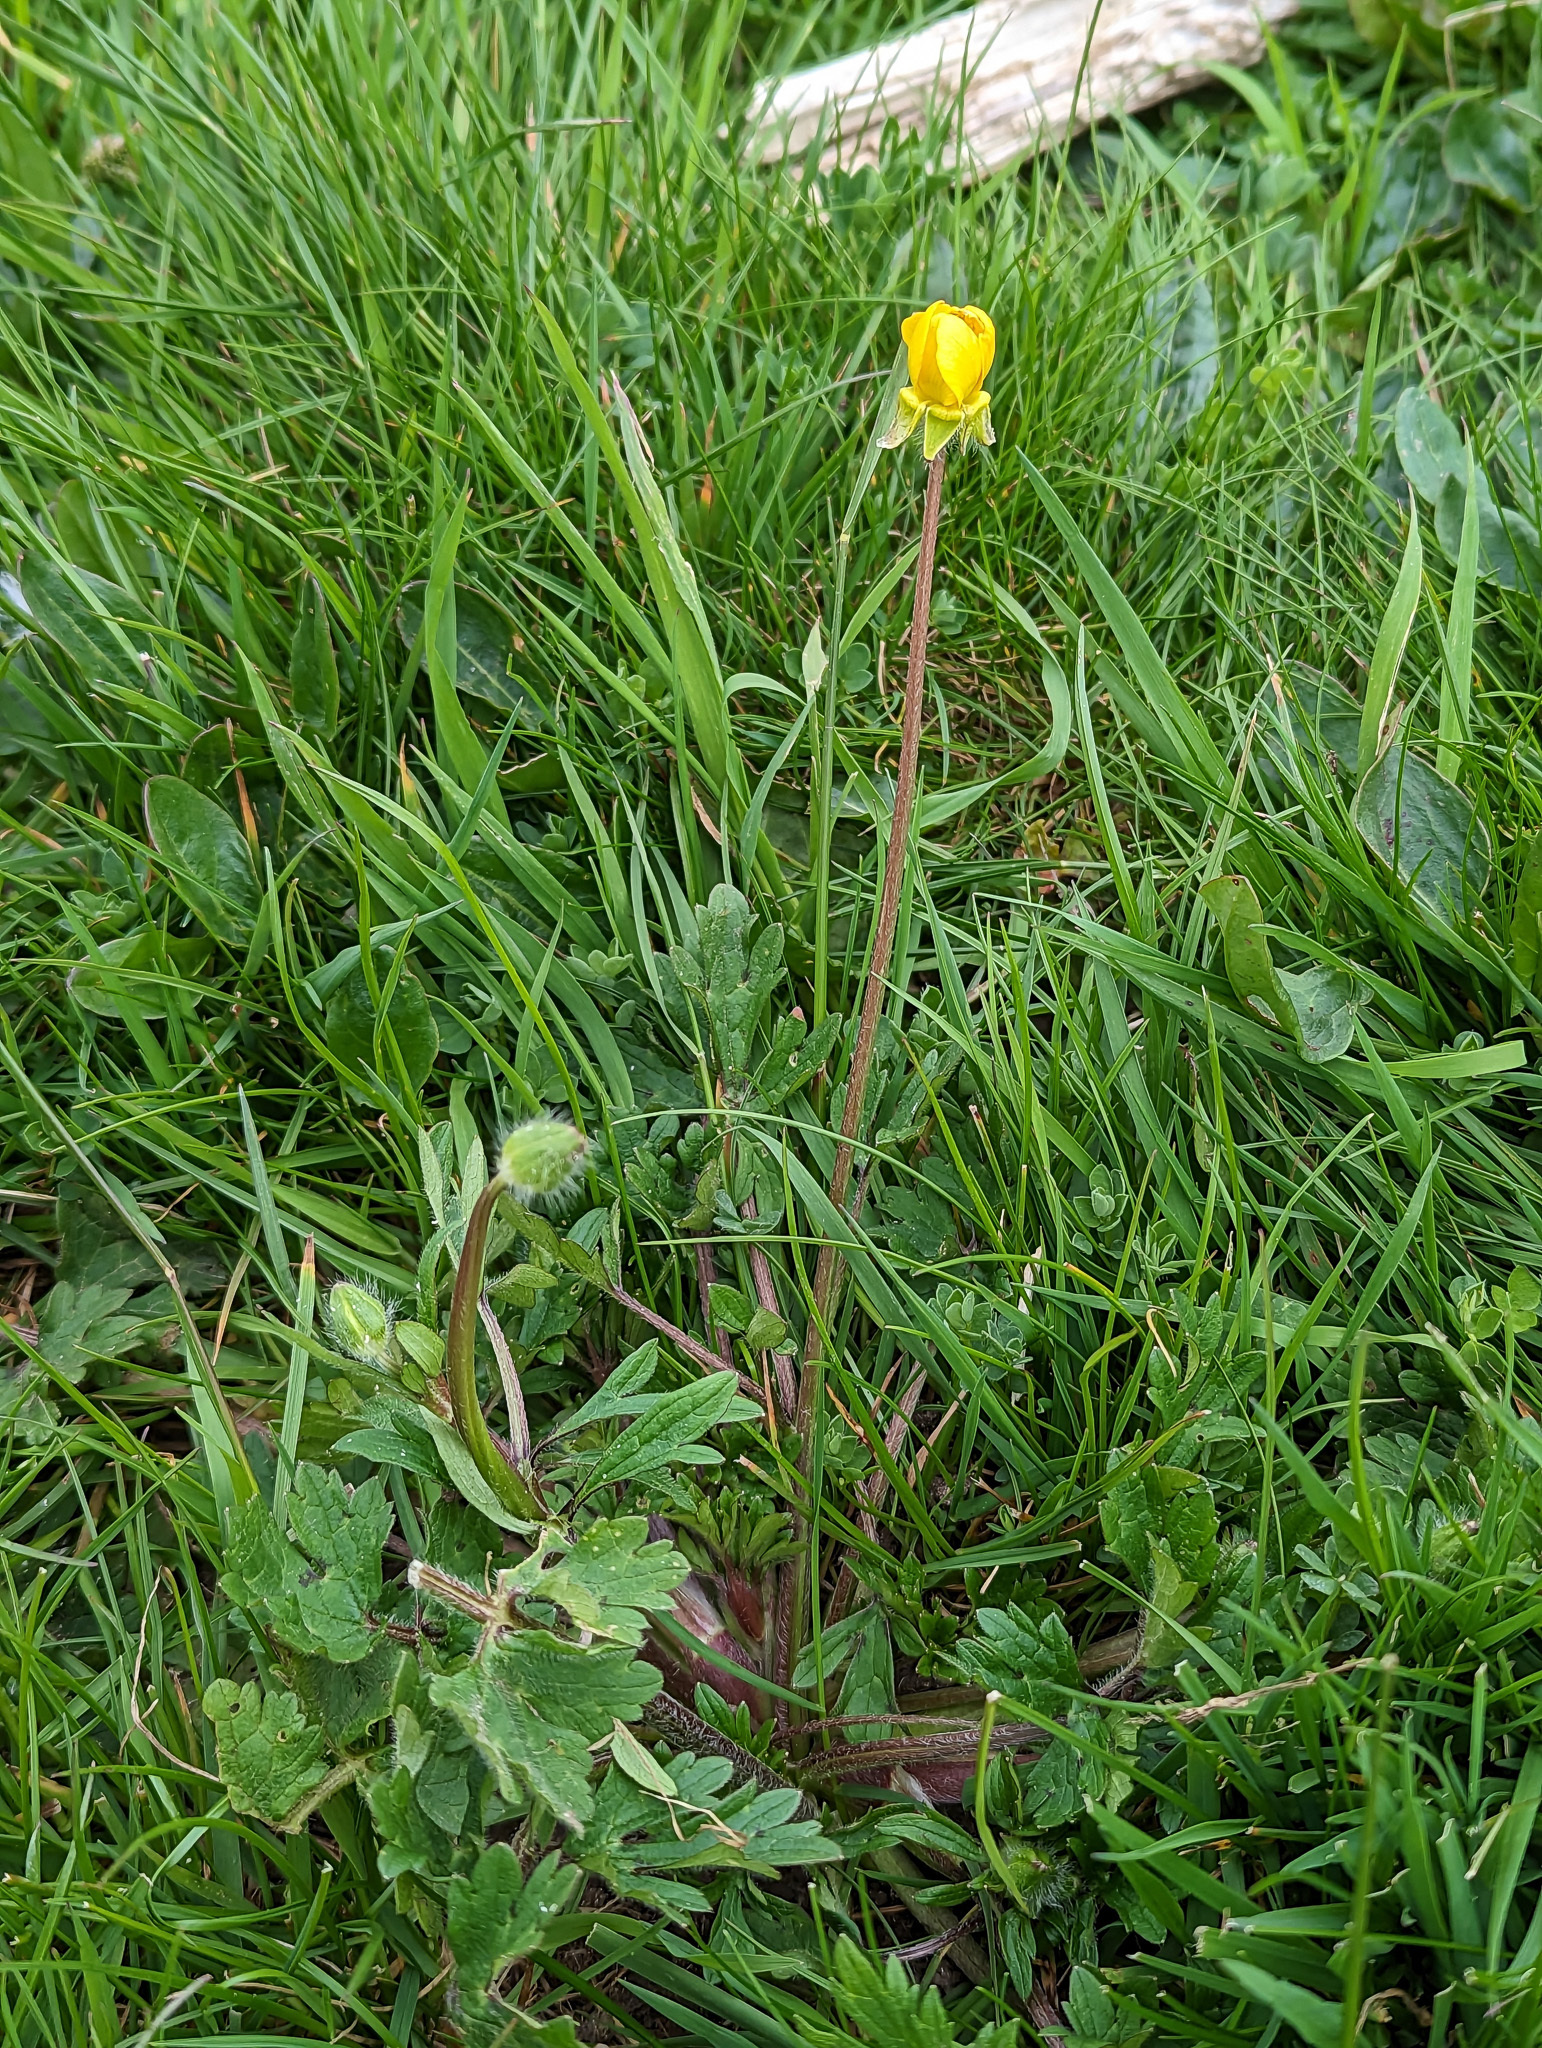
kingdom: Plantae
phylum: Tracheophyta
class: Magnoliopsida
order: Ranunculales
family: Ranunculaceae
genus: Ranunculus
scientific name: Ranunculus bulbosus
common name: Bulbous buttercup
